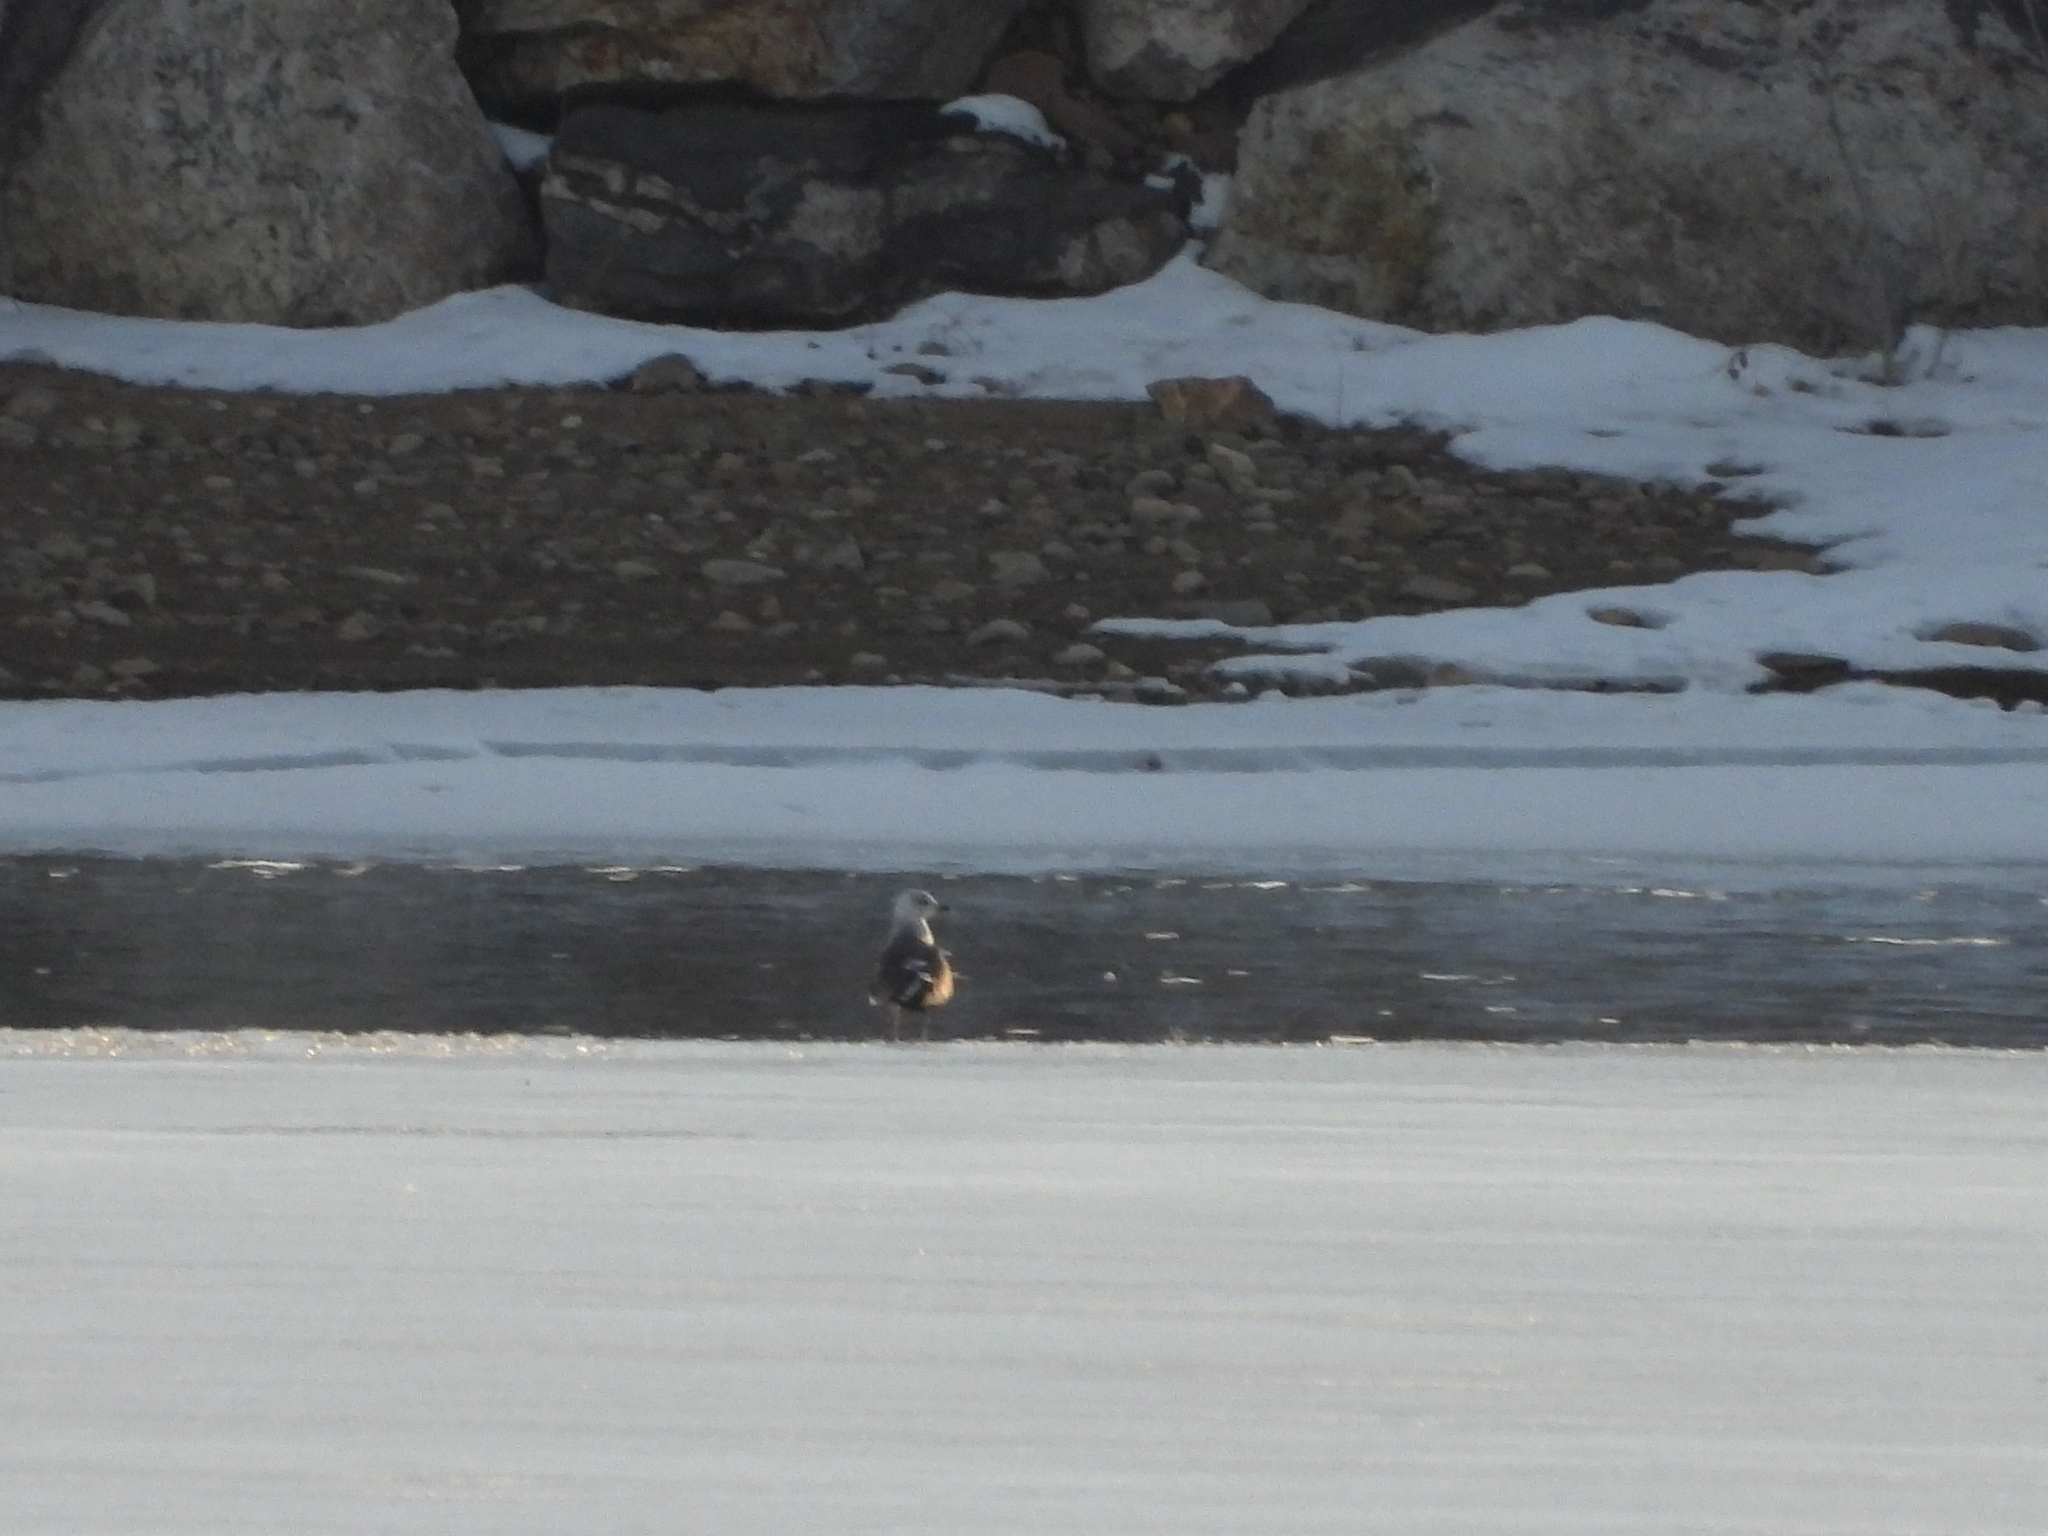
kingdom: Animalia
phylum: Chordata
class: Aves
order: Charadriiformes
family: Laridae
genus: Larus
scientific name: Larus fuscus
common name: Lesser black-backed gull
